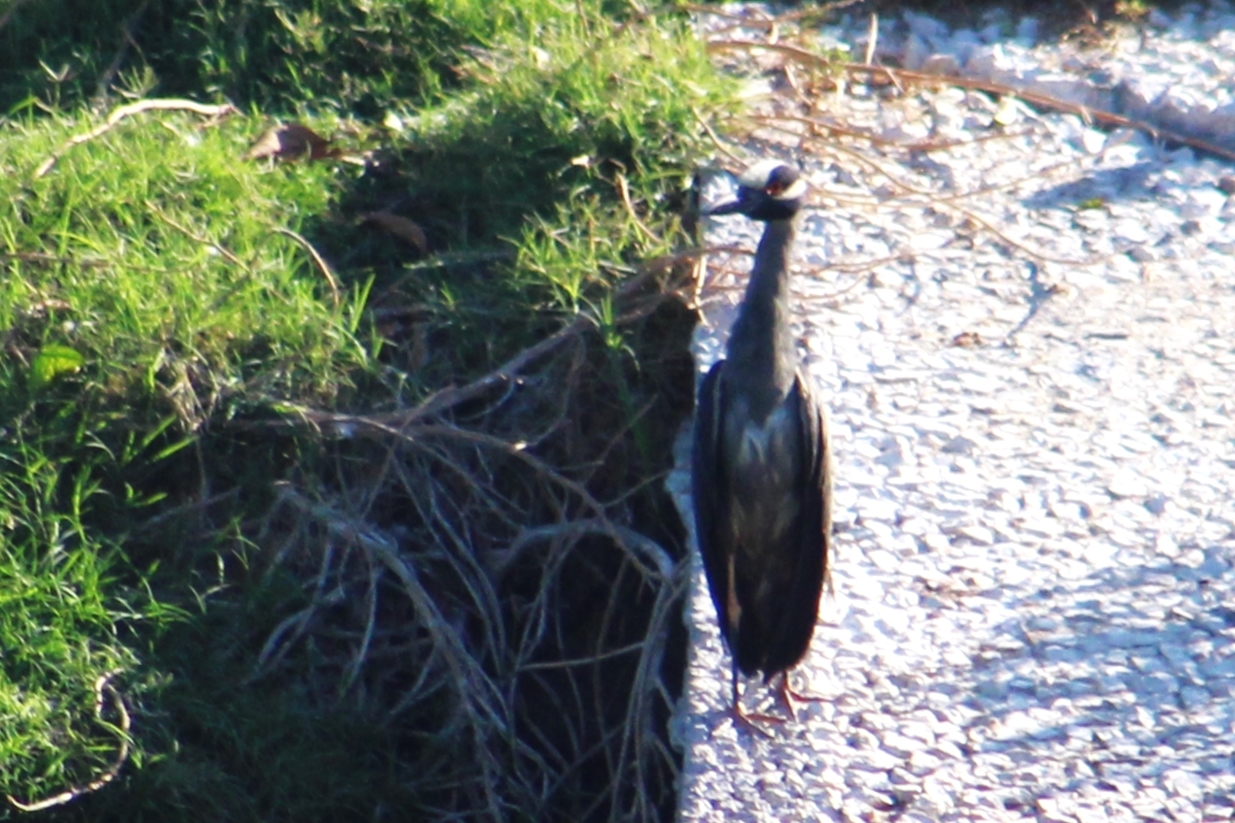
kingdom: Animalia
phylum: Chordata
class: Aves
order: Pelecaniformes
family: Ardeidae
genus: Nyctanassa
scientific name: Nyctanassa violacea
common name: Yellow-crowned night heron
